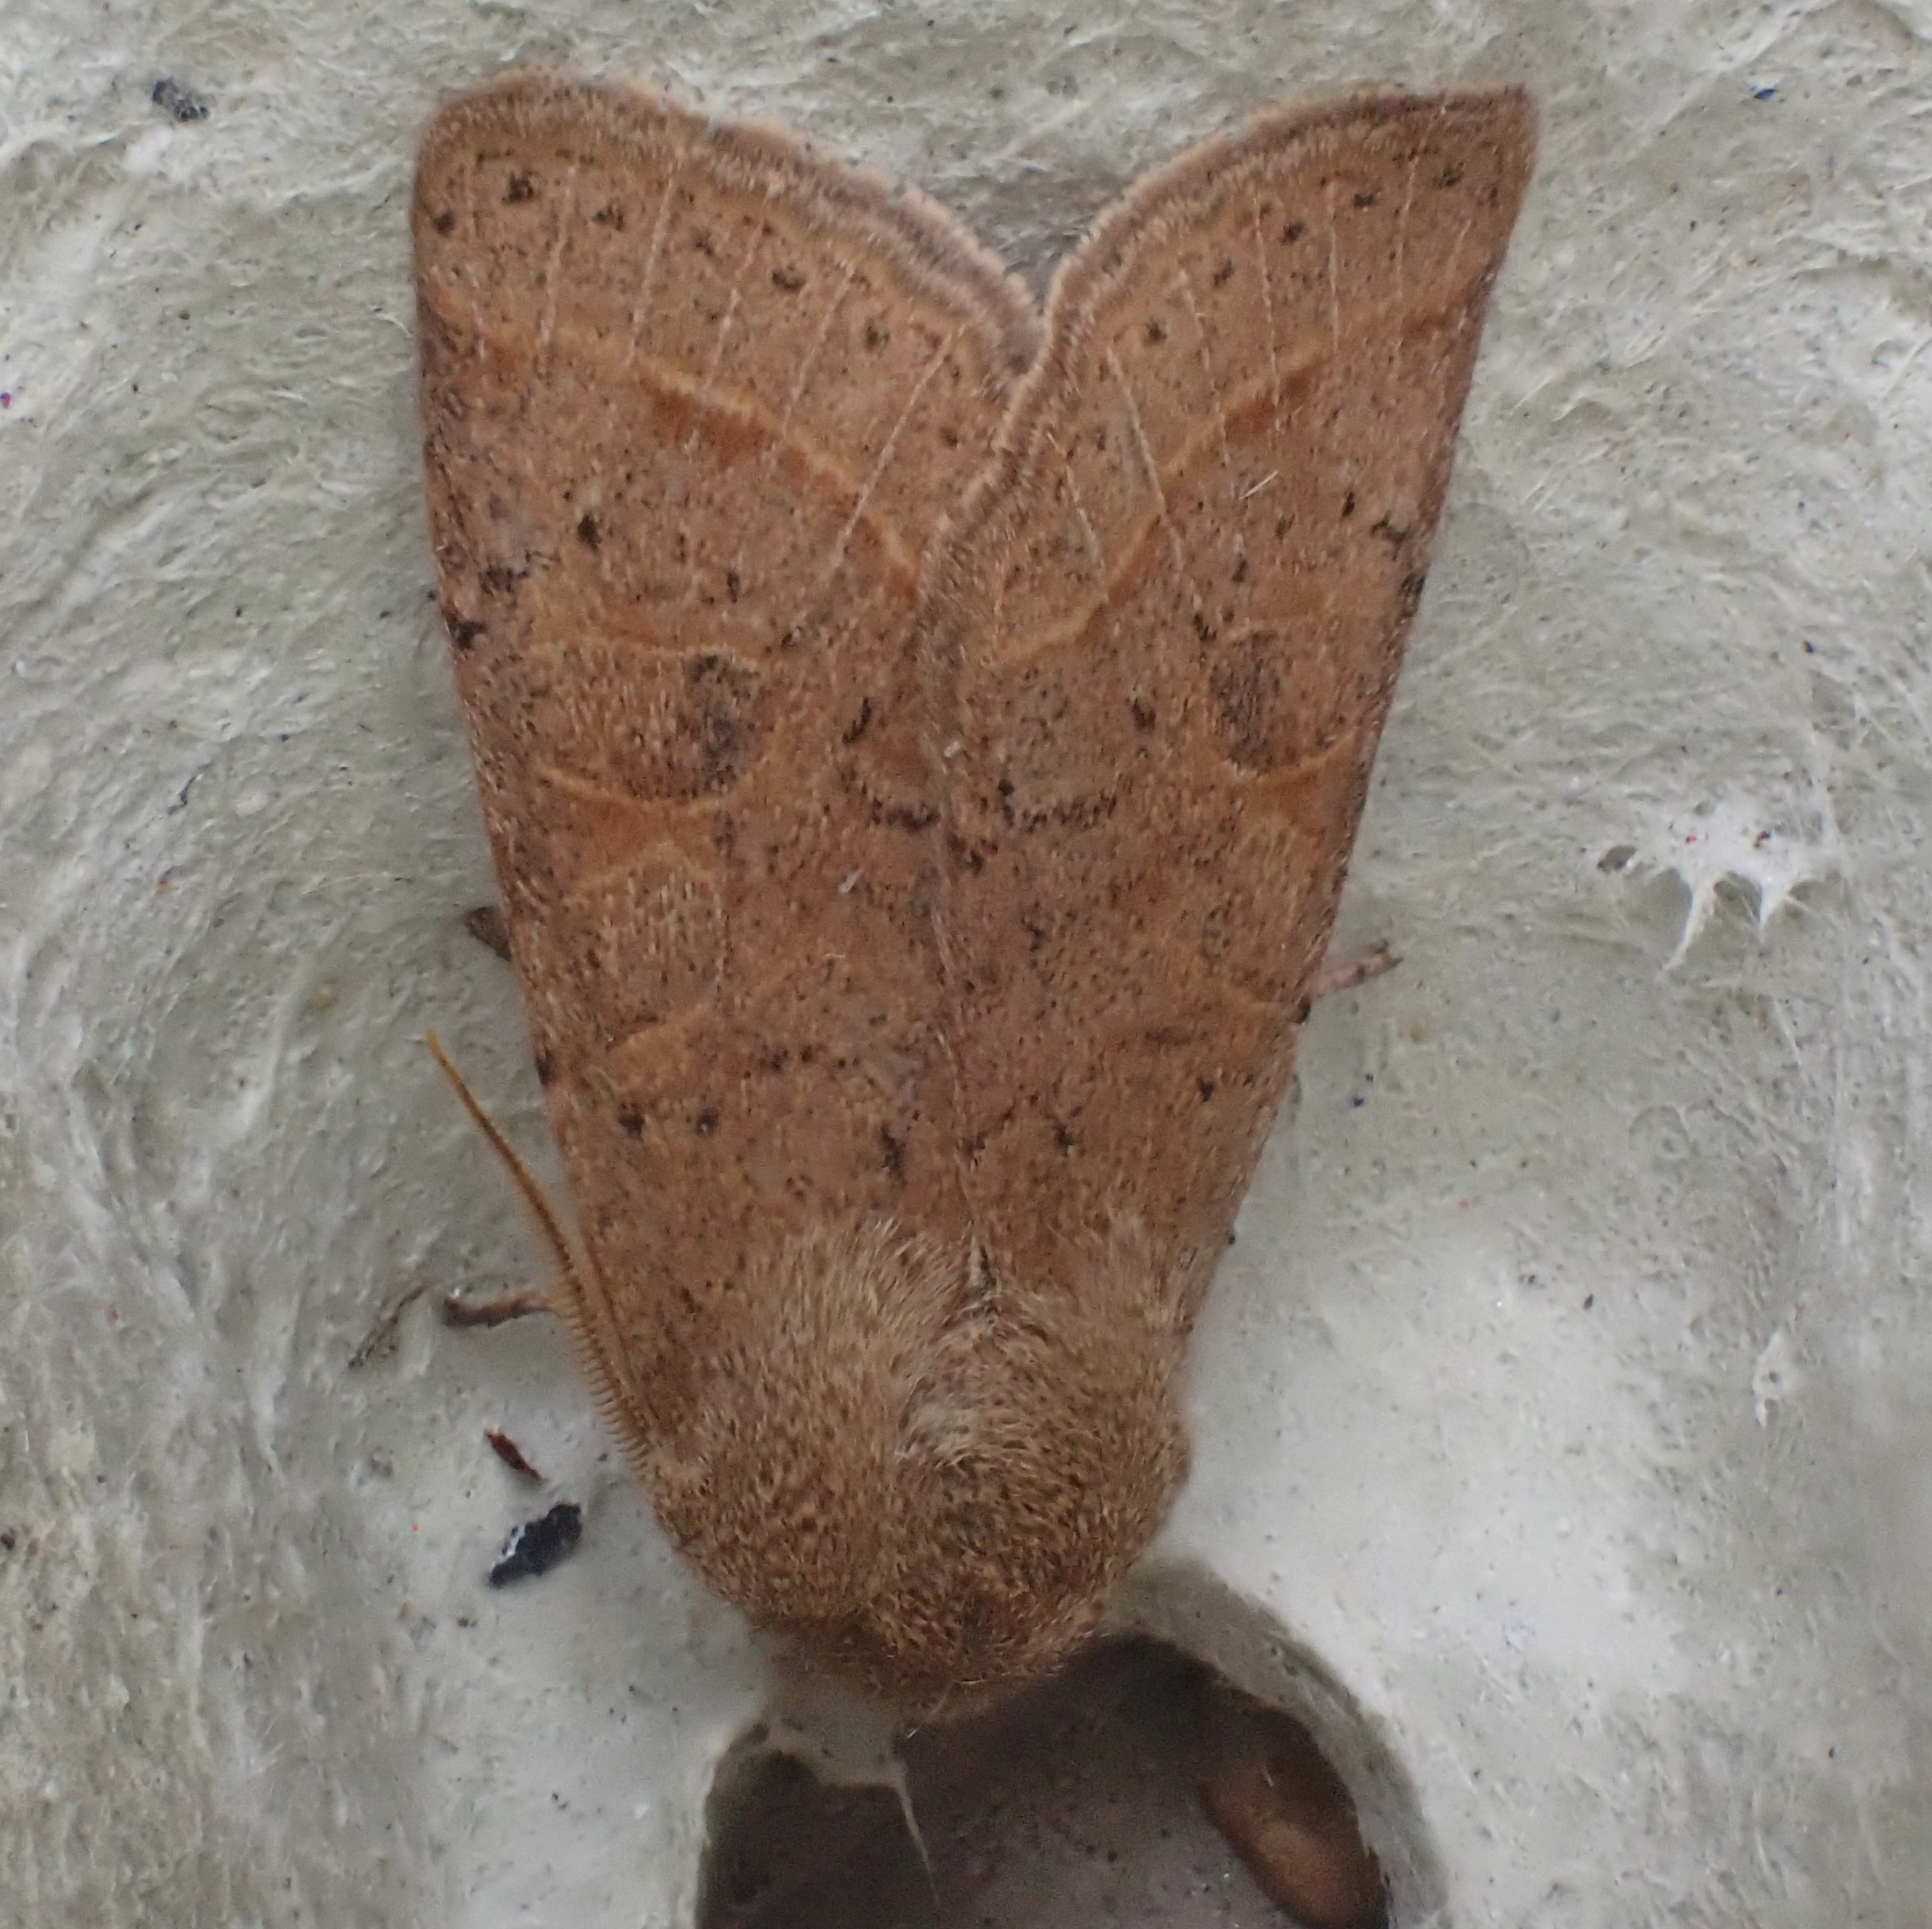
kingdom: Animalia
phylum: Arthropoda
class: Insecta
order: Lepidoptera
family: Noctuidae
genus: Orthosia
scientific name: Orthosia cerasi
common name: Common quaker
